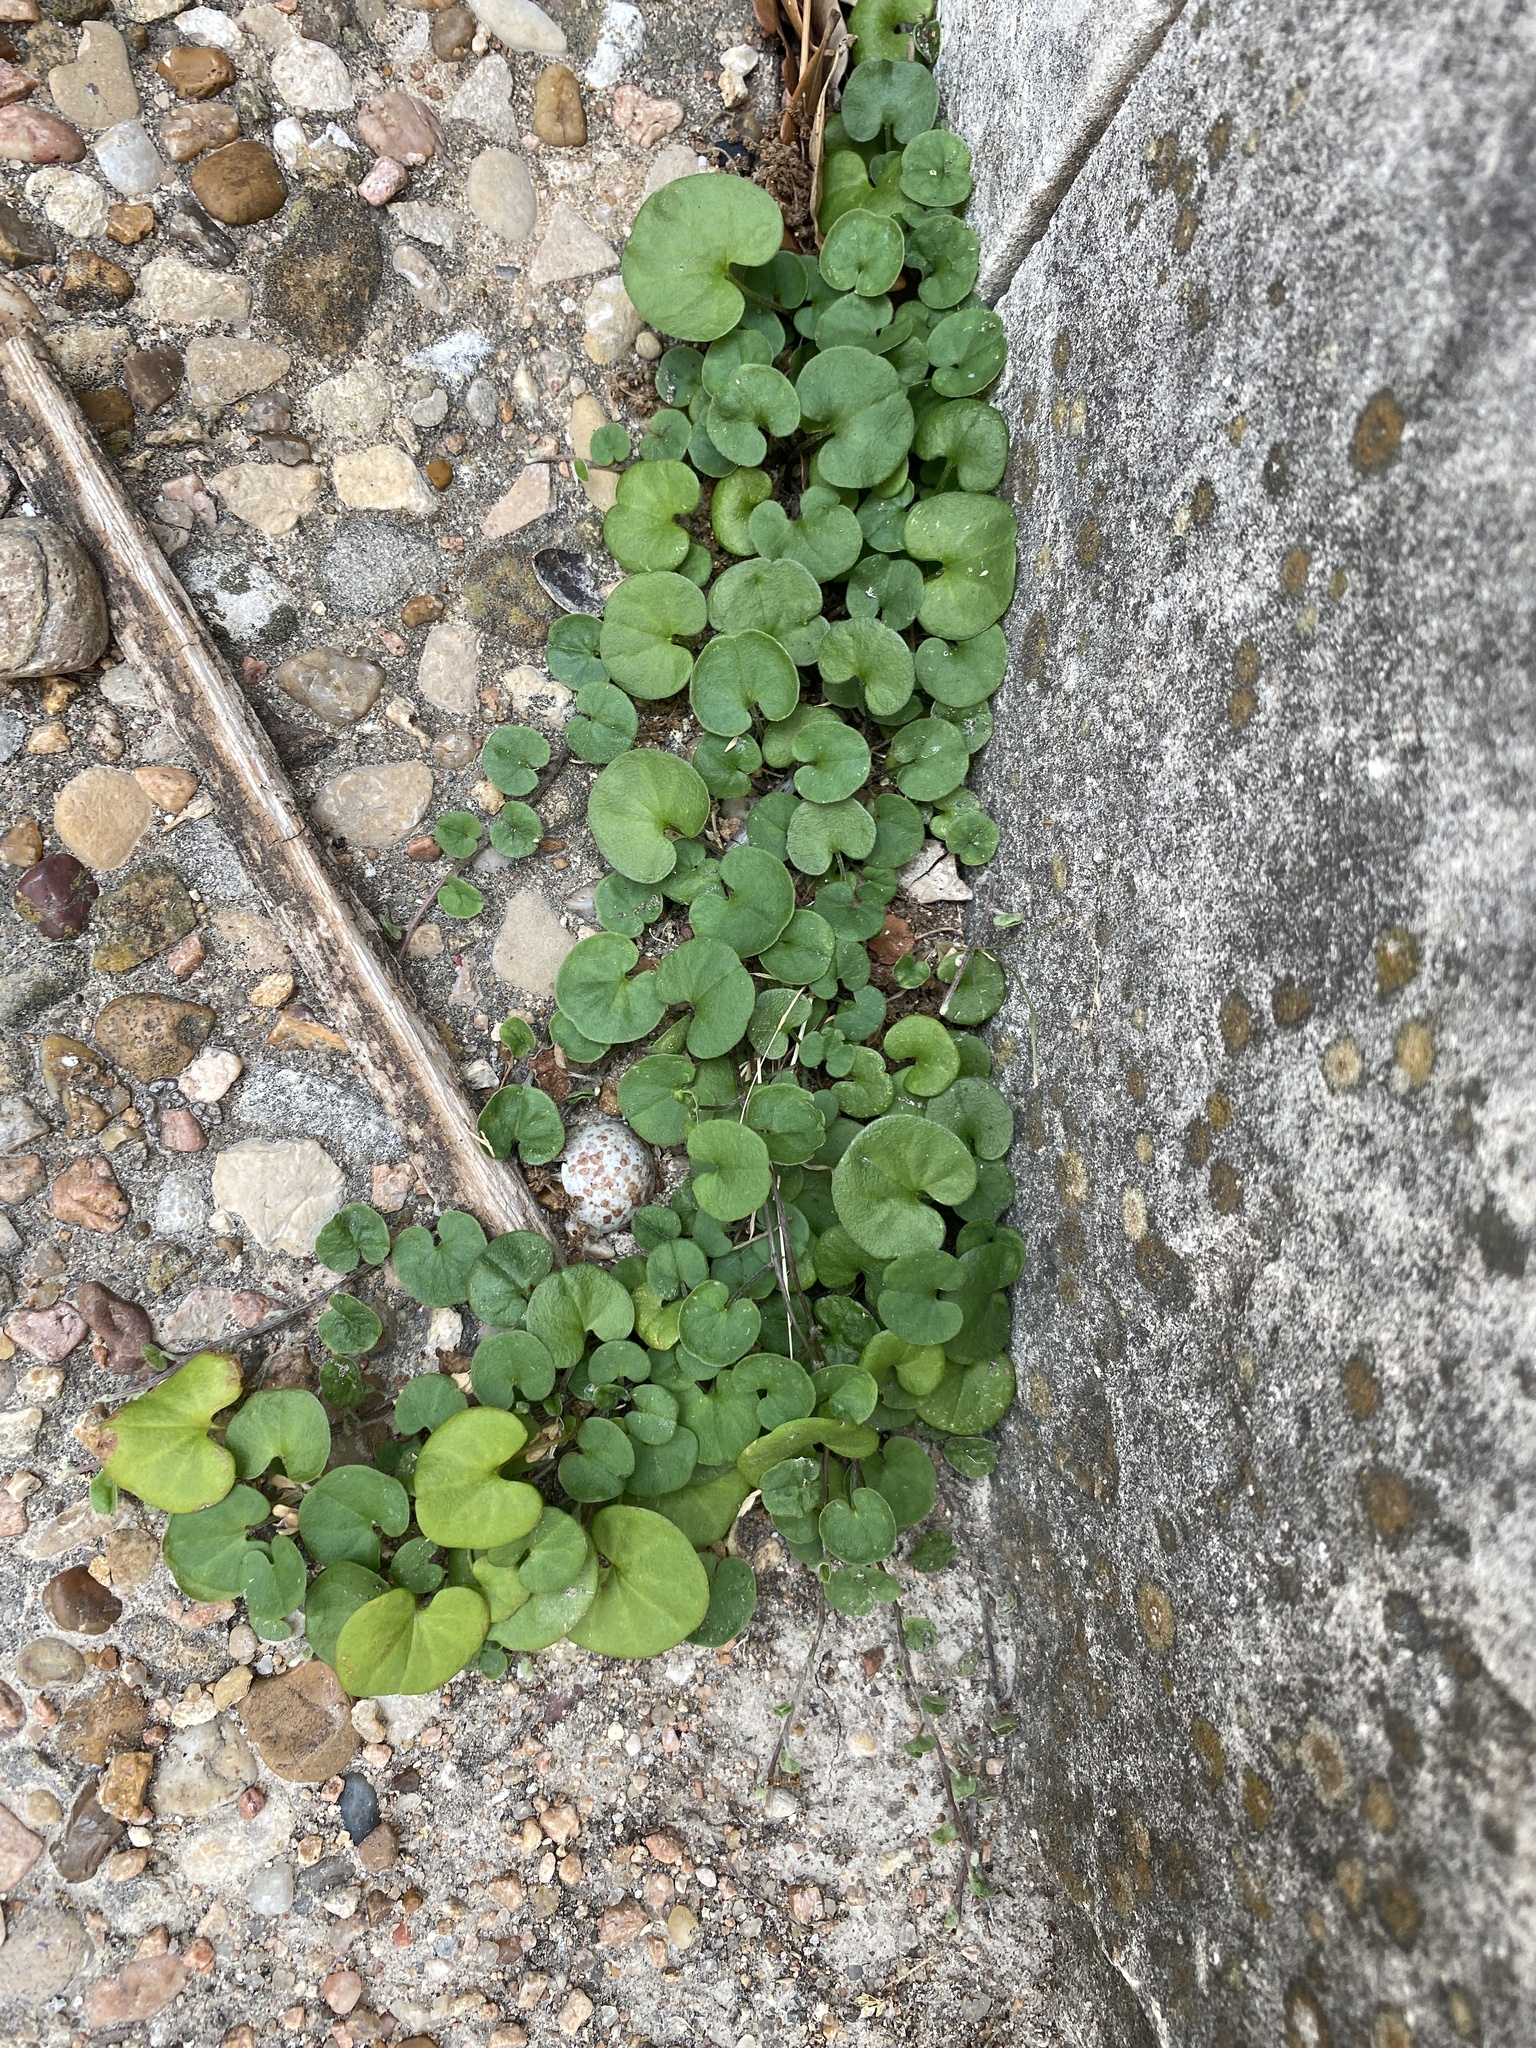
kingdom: Plantae
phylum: Tracheophyta
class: Magnoliopsida
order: Solanales
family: Convolvulaceae
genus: Dichondra
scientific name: Dichondra carolinensis
